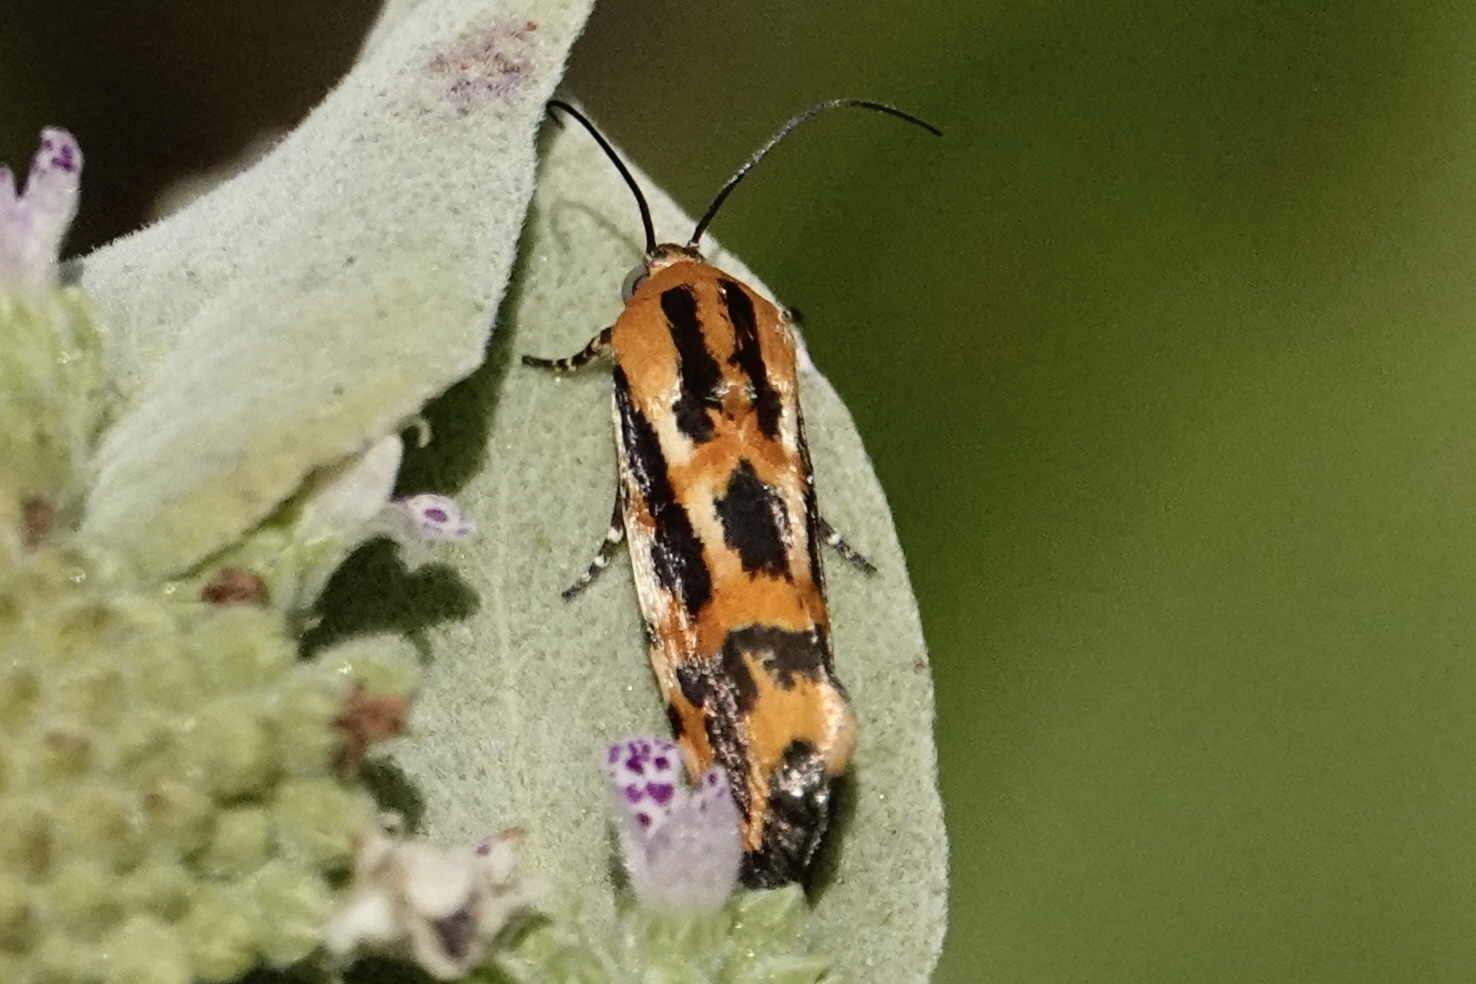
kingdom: Animalia
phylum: Arthropoda
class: Insecta
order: Lepidoptera
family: Noctuidae
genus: Acontia
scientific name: Acontia leo
